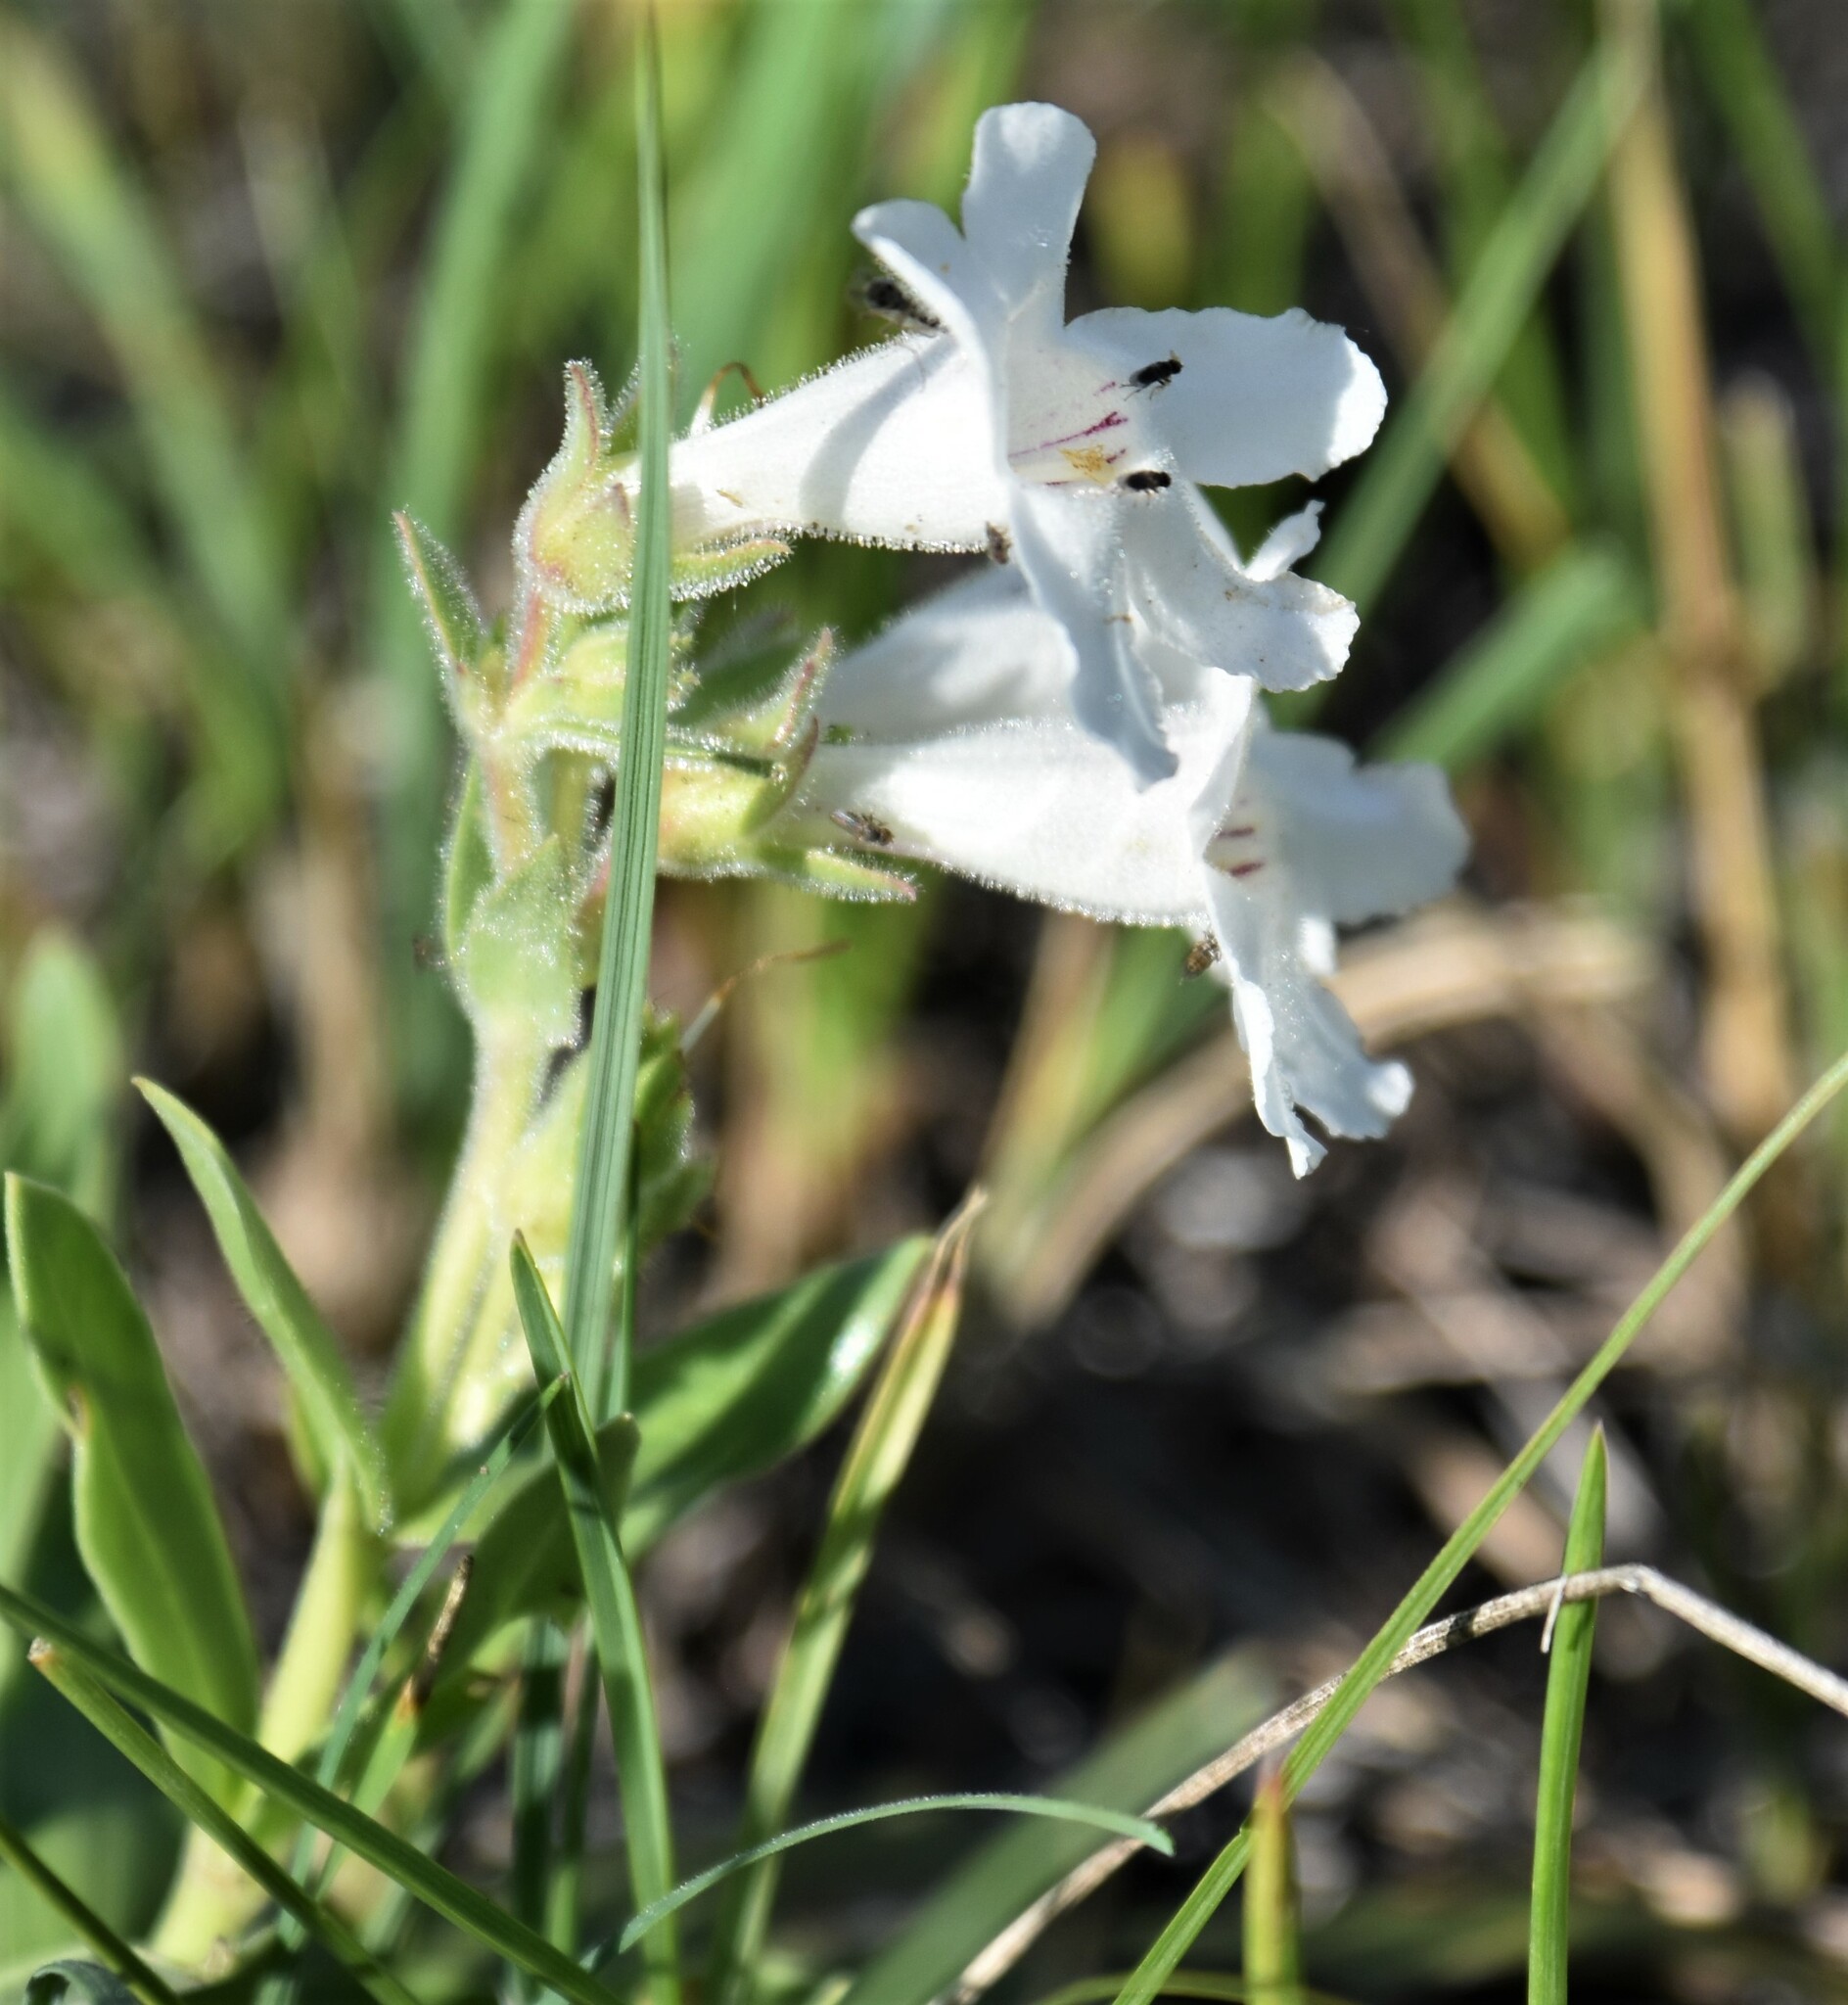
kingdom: Plantae
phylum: Tracheophyta
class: Magnoliopsida
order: Lamiales
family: Plantaginaceae
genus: Penstemon
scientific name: Penstemon albidus
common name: White beardtongue
